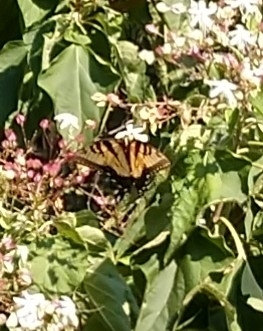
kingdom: Animalia
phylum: Arthropoda
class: Insecta
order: Lepidoptera
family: Papilionidae
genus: Papilio
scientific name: Papilio glaucus
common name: Tiger swallowtail
